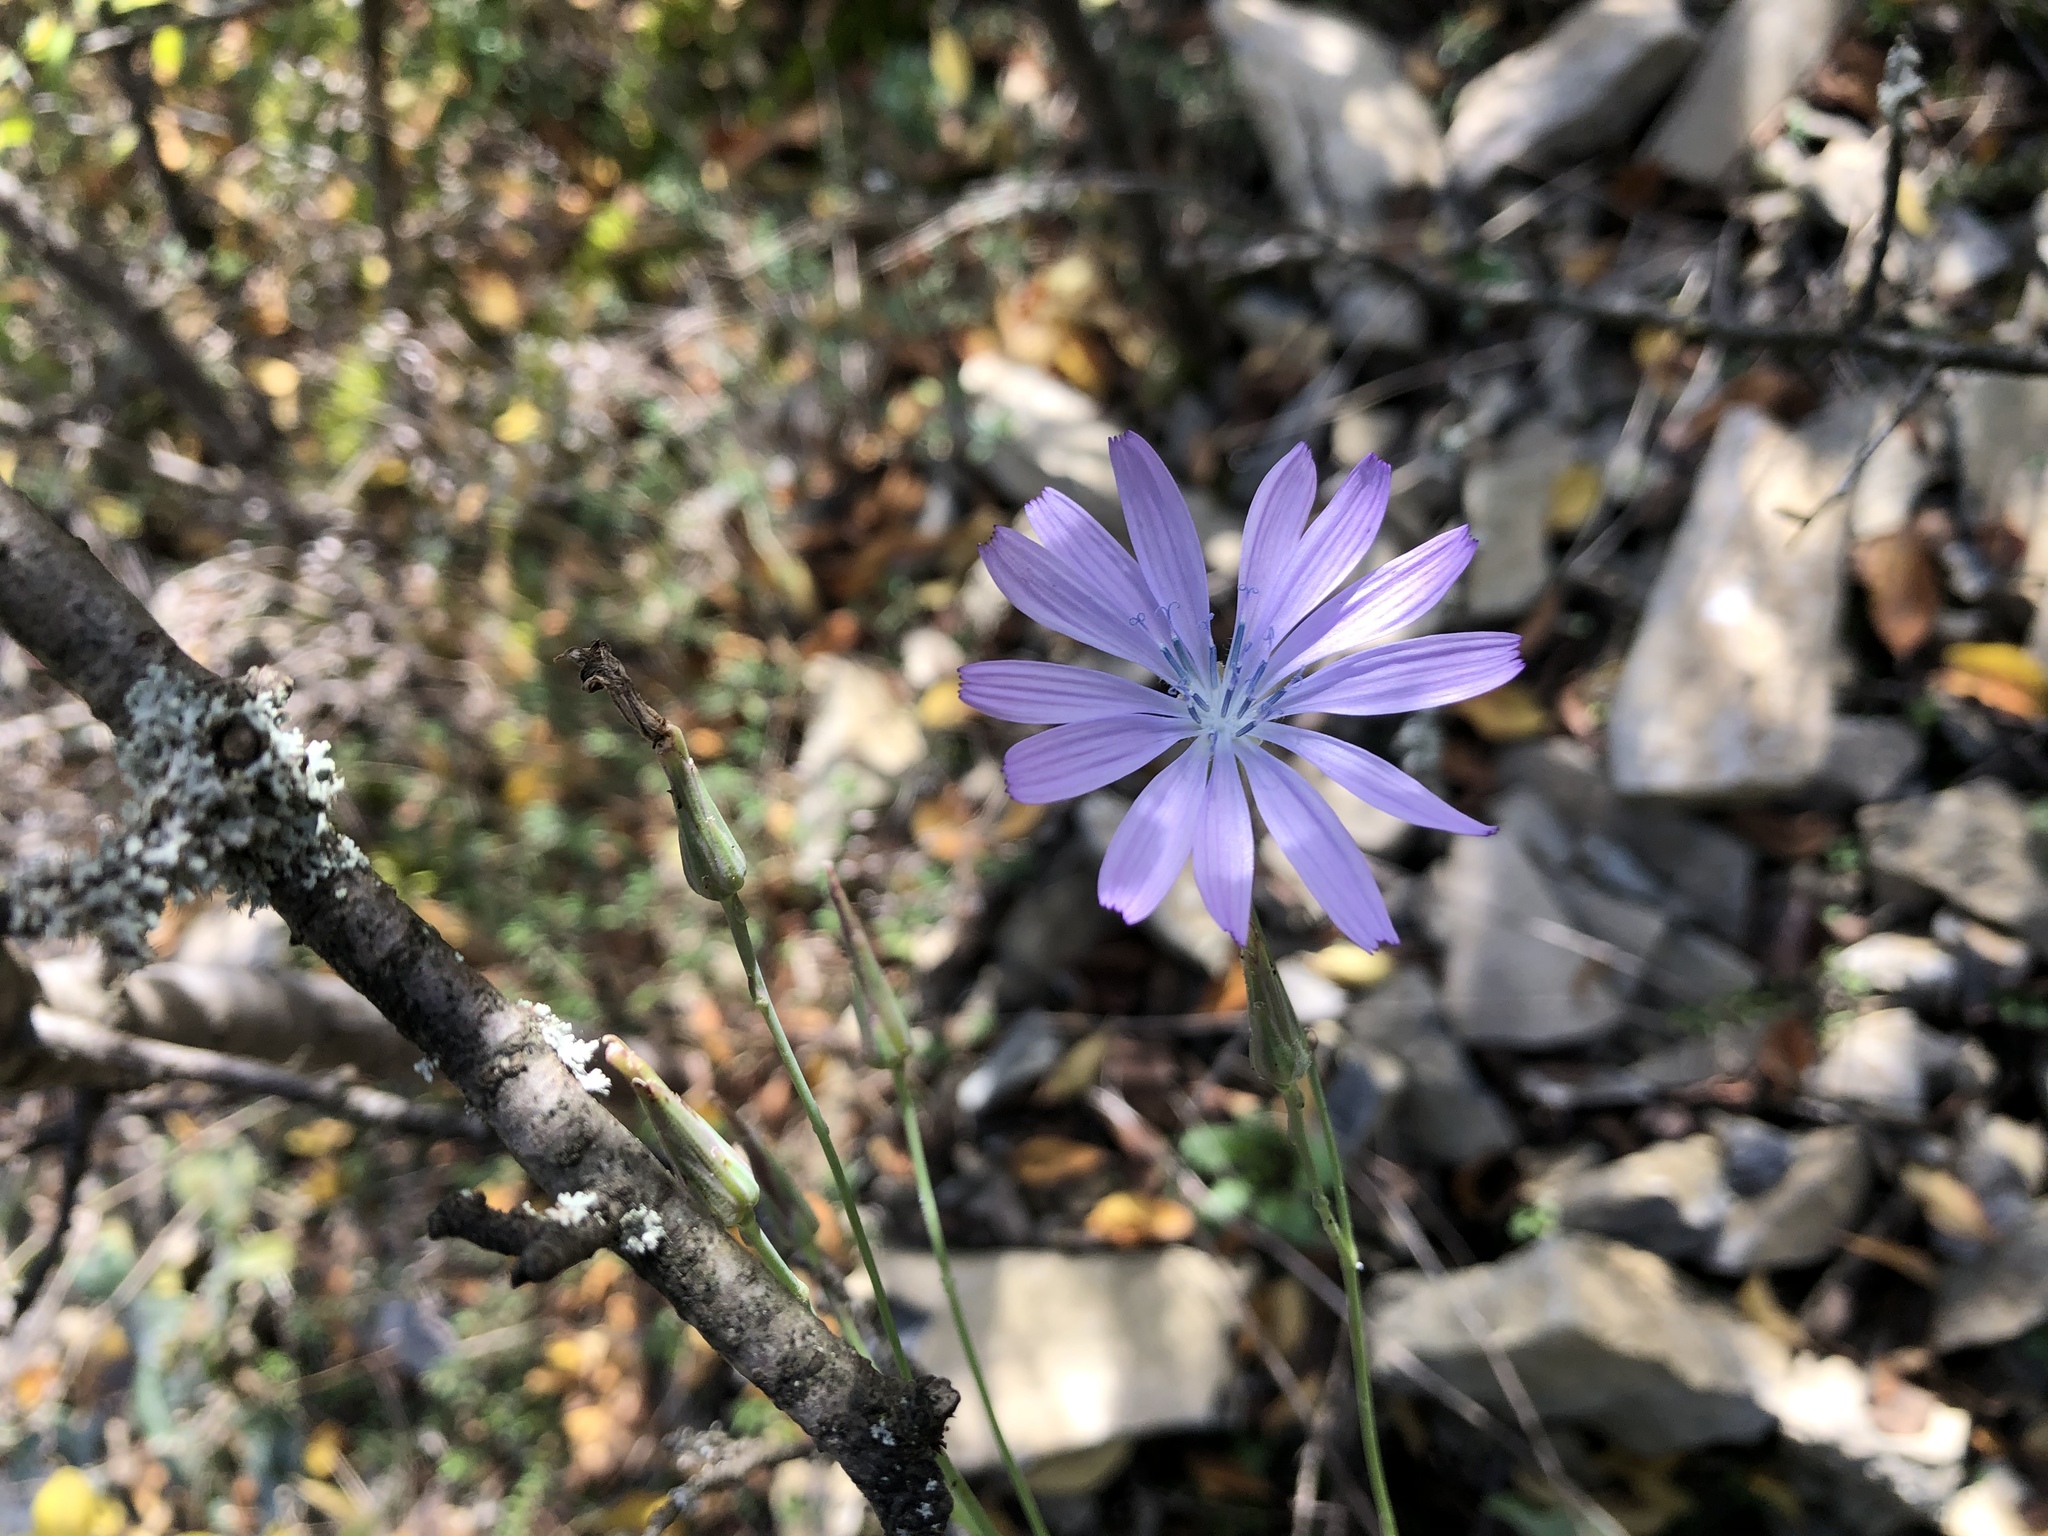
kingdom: Plantae
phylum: Tracheophyta
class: Magnoliopsida
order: Asterales
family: Asteraceae
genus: Lactuca
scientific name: Lactuca perennis
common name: Mountain lettuce
